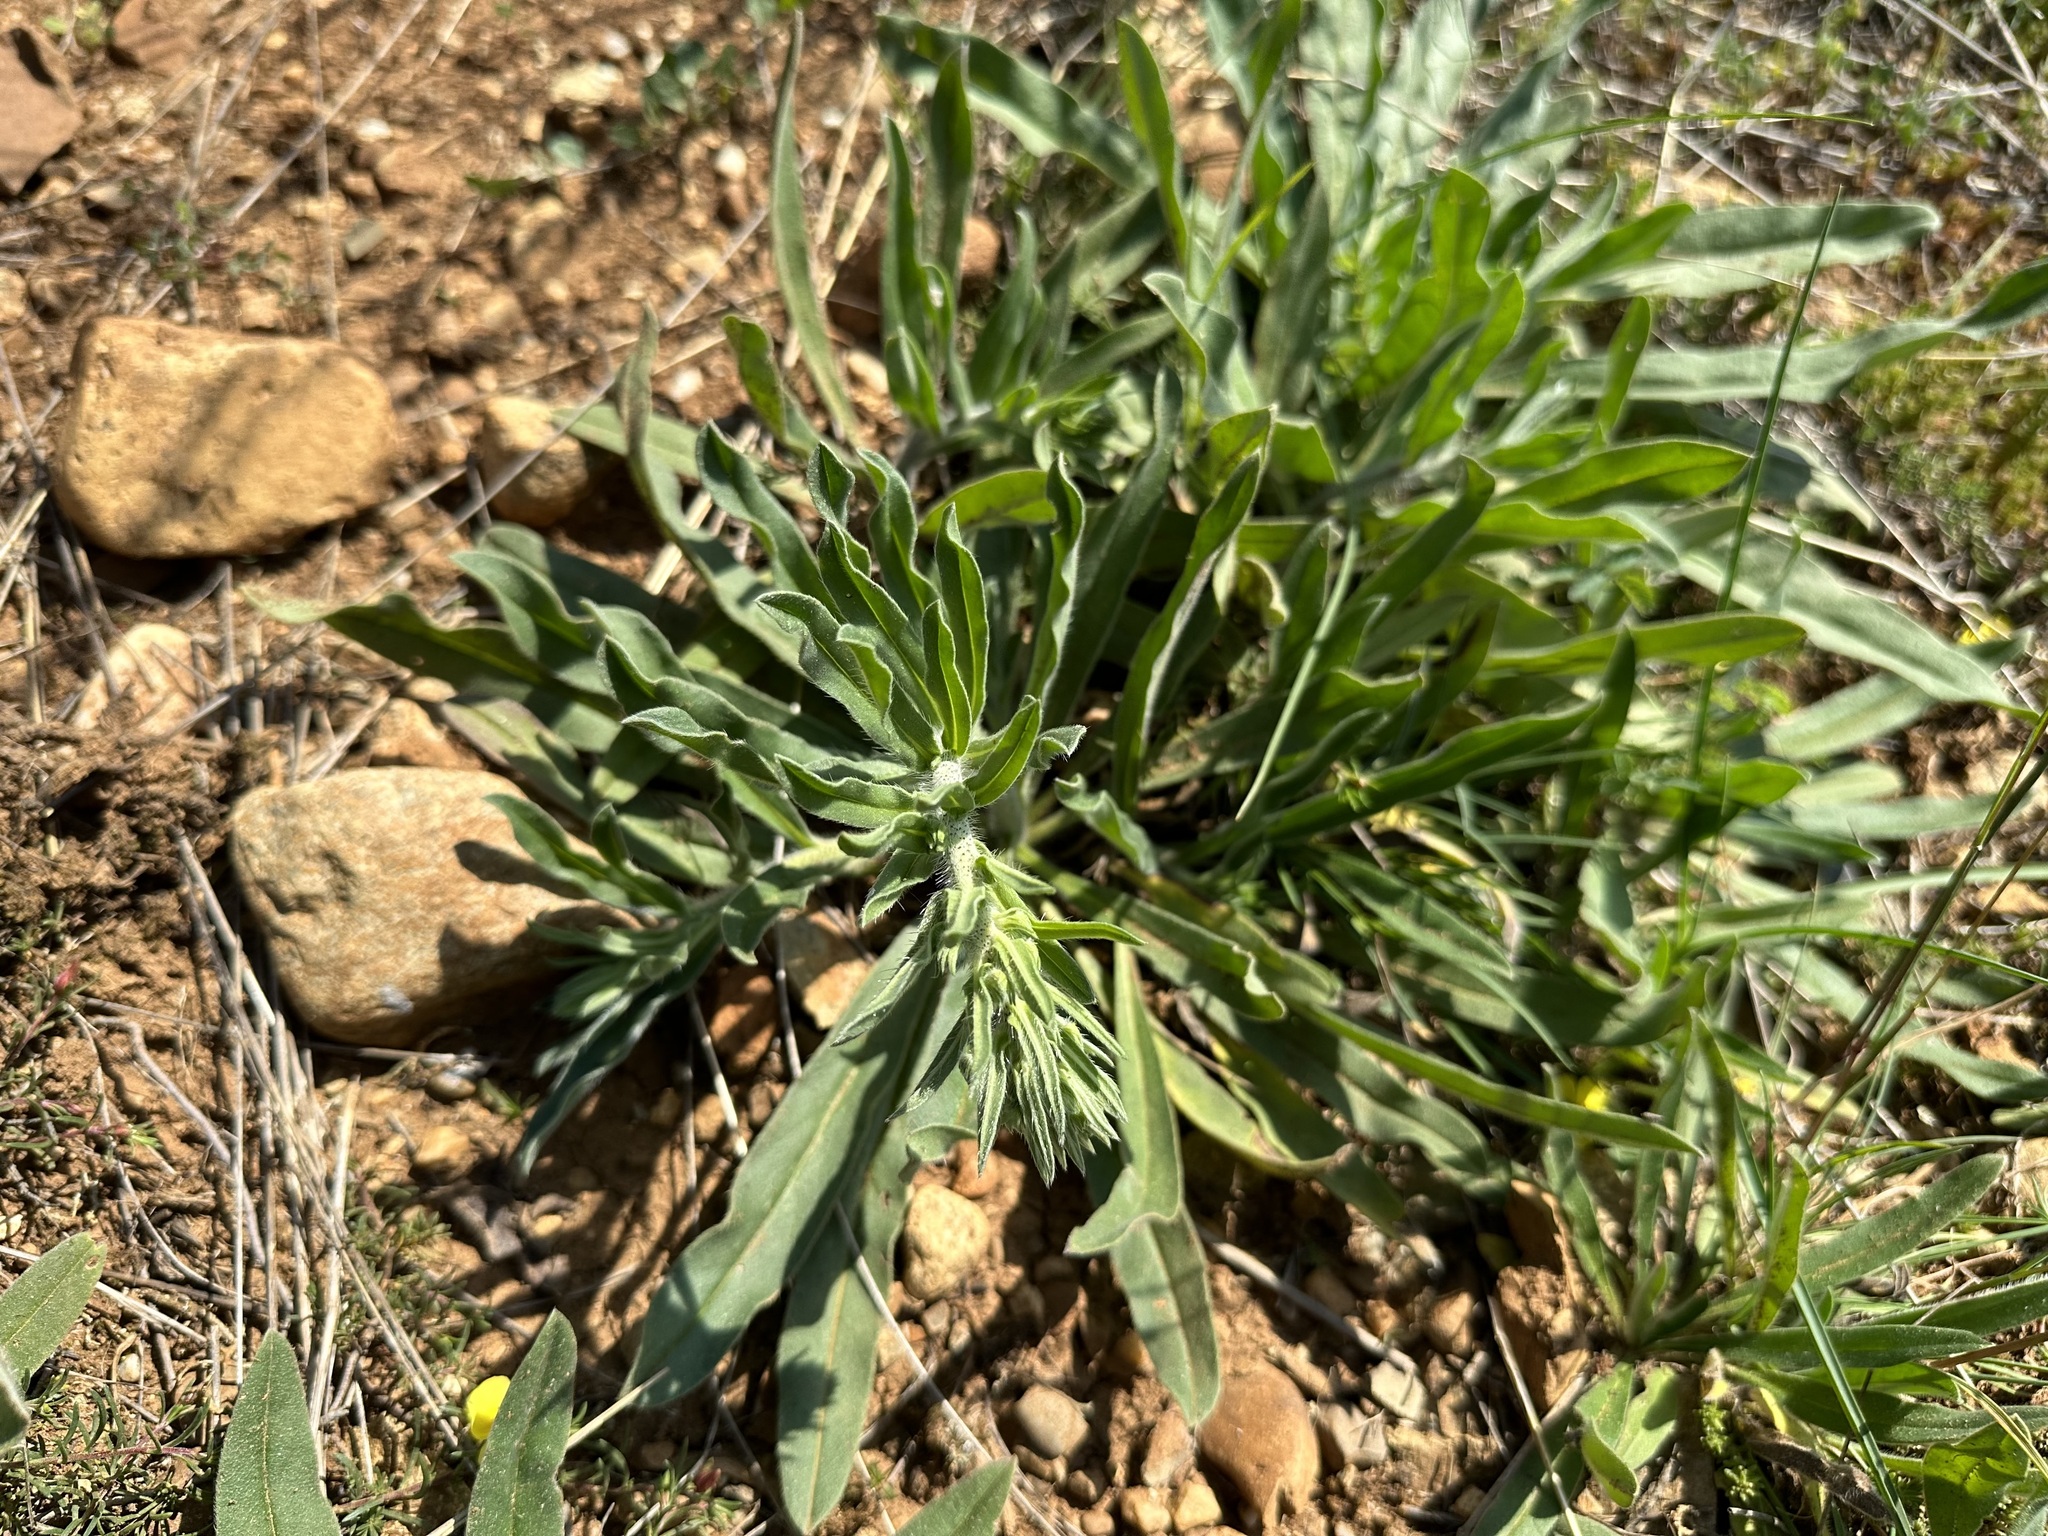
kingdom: Plantae
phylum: Tracheophyta
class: Magnoliopsida
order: Boraginales
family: Boraginaceae
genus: Echium
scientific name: Echium vulgare
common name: Common viper's bugloss
